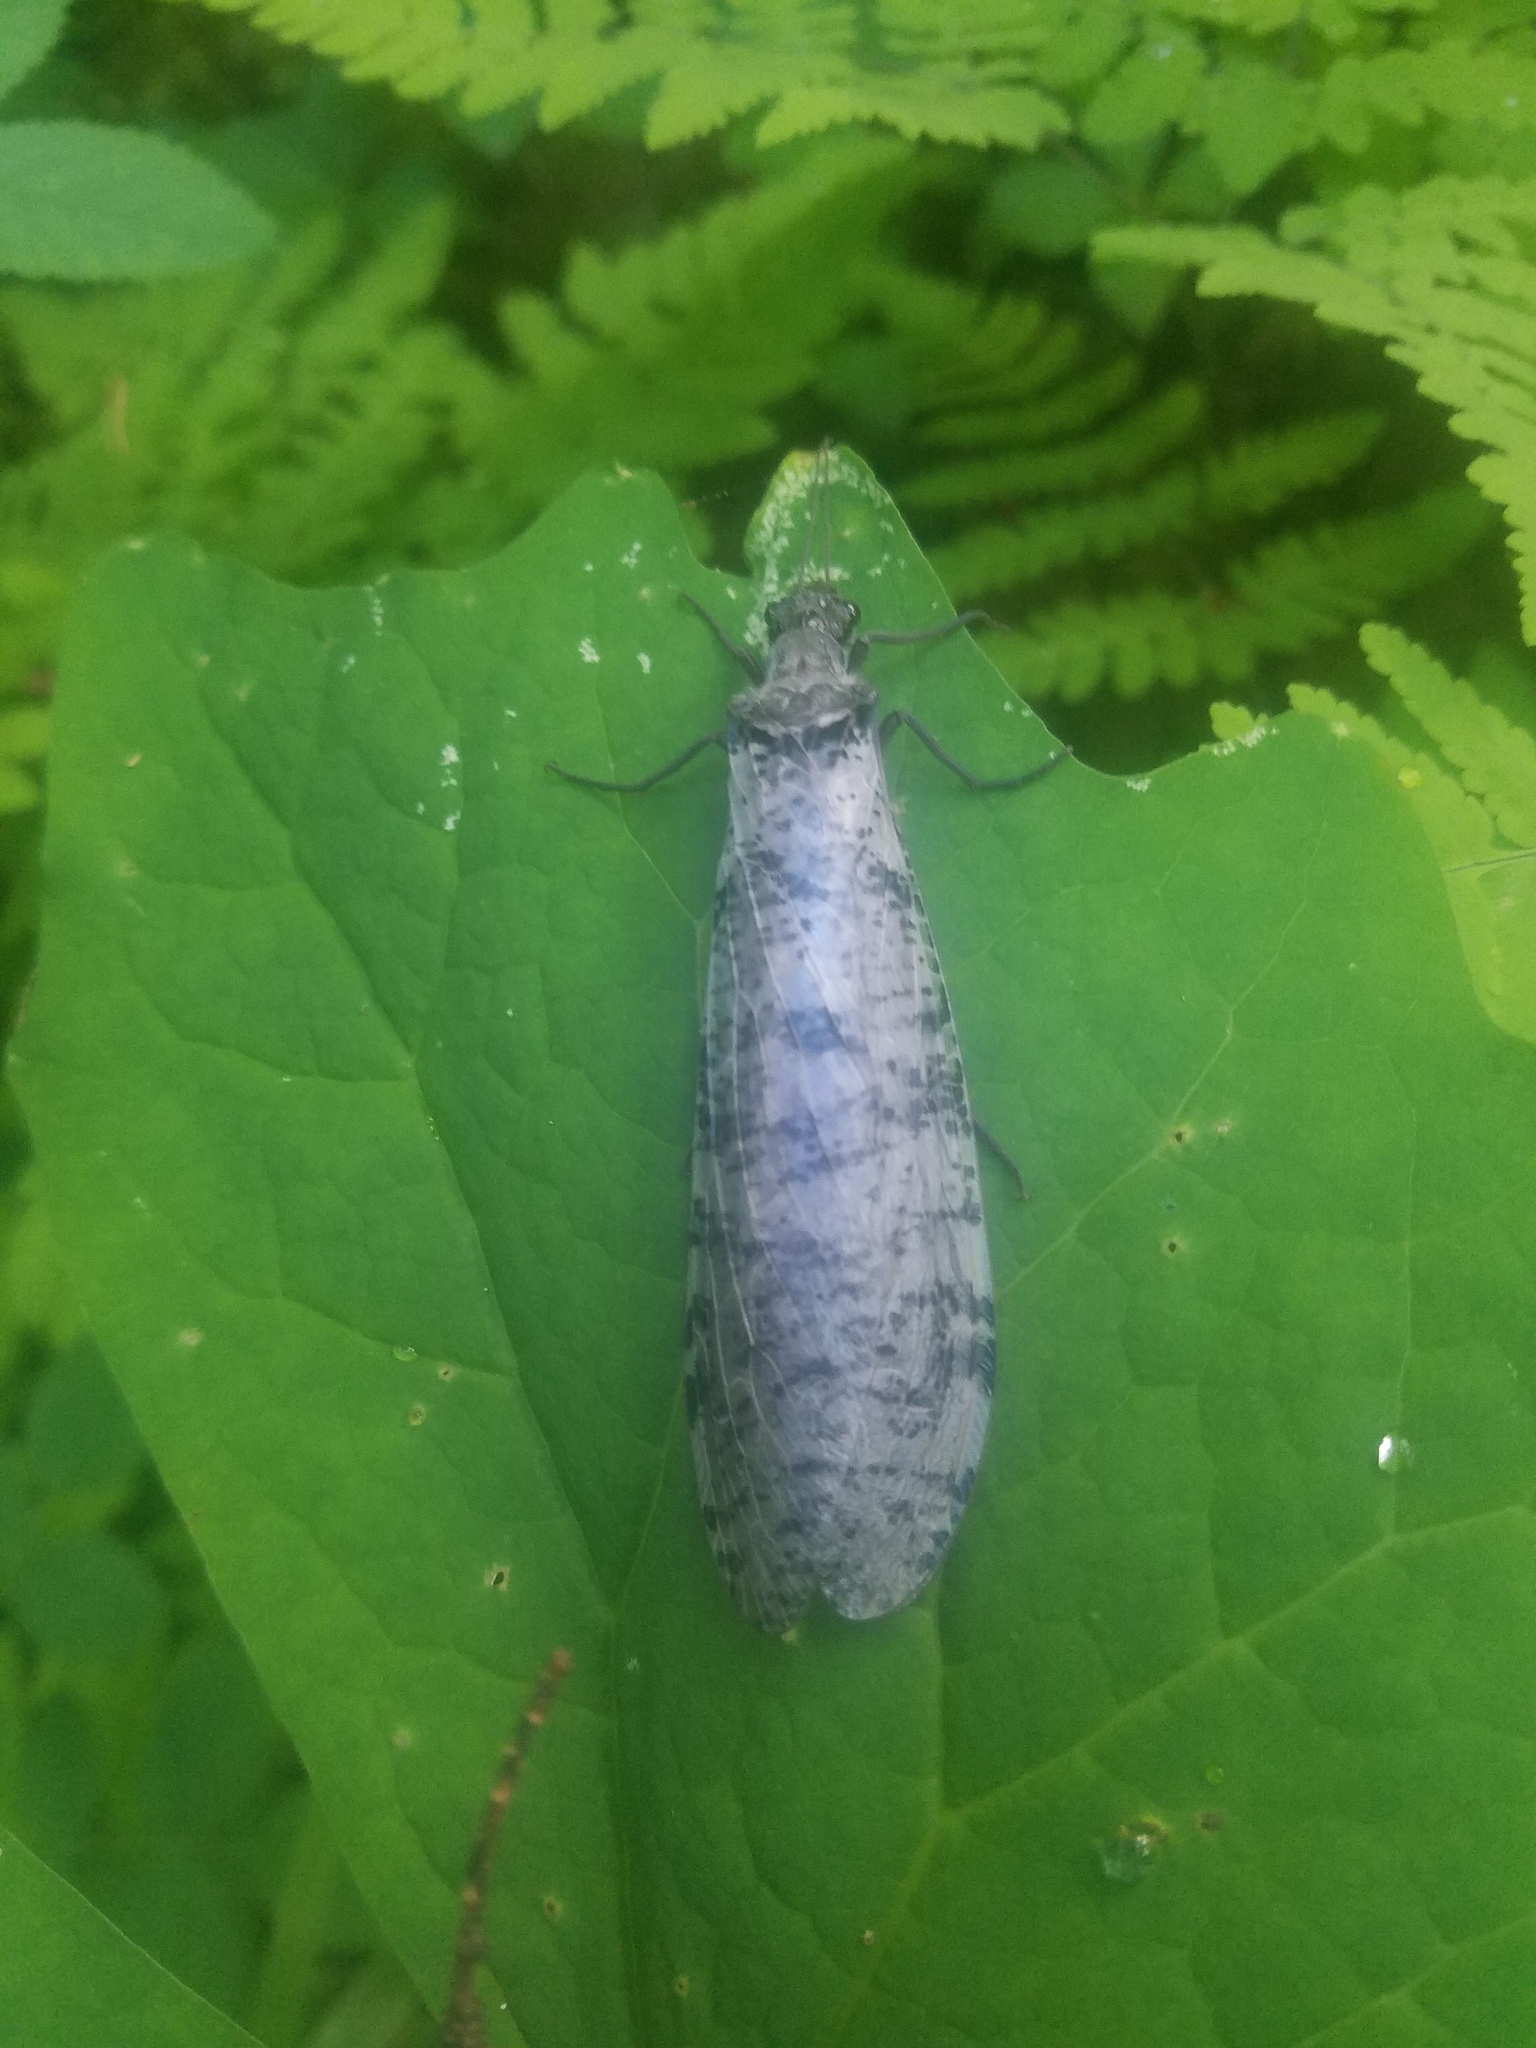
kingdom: Animalia
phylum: Arthropoda
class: Insecta
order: Megaloptera
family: Corydalidae
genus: Dysmicohermes
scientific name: Dysmicohermes disjunctus
